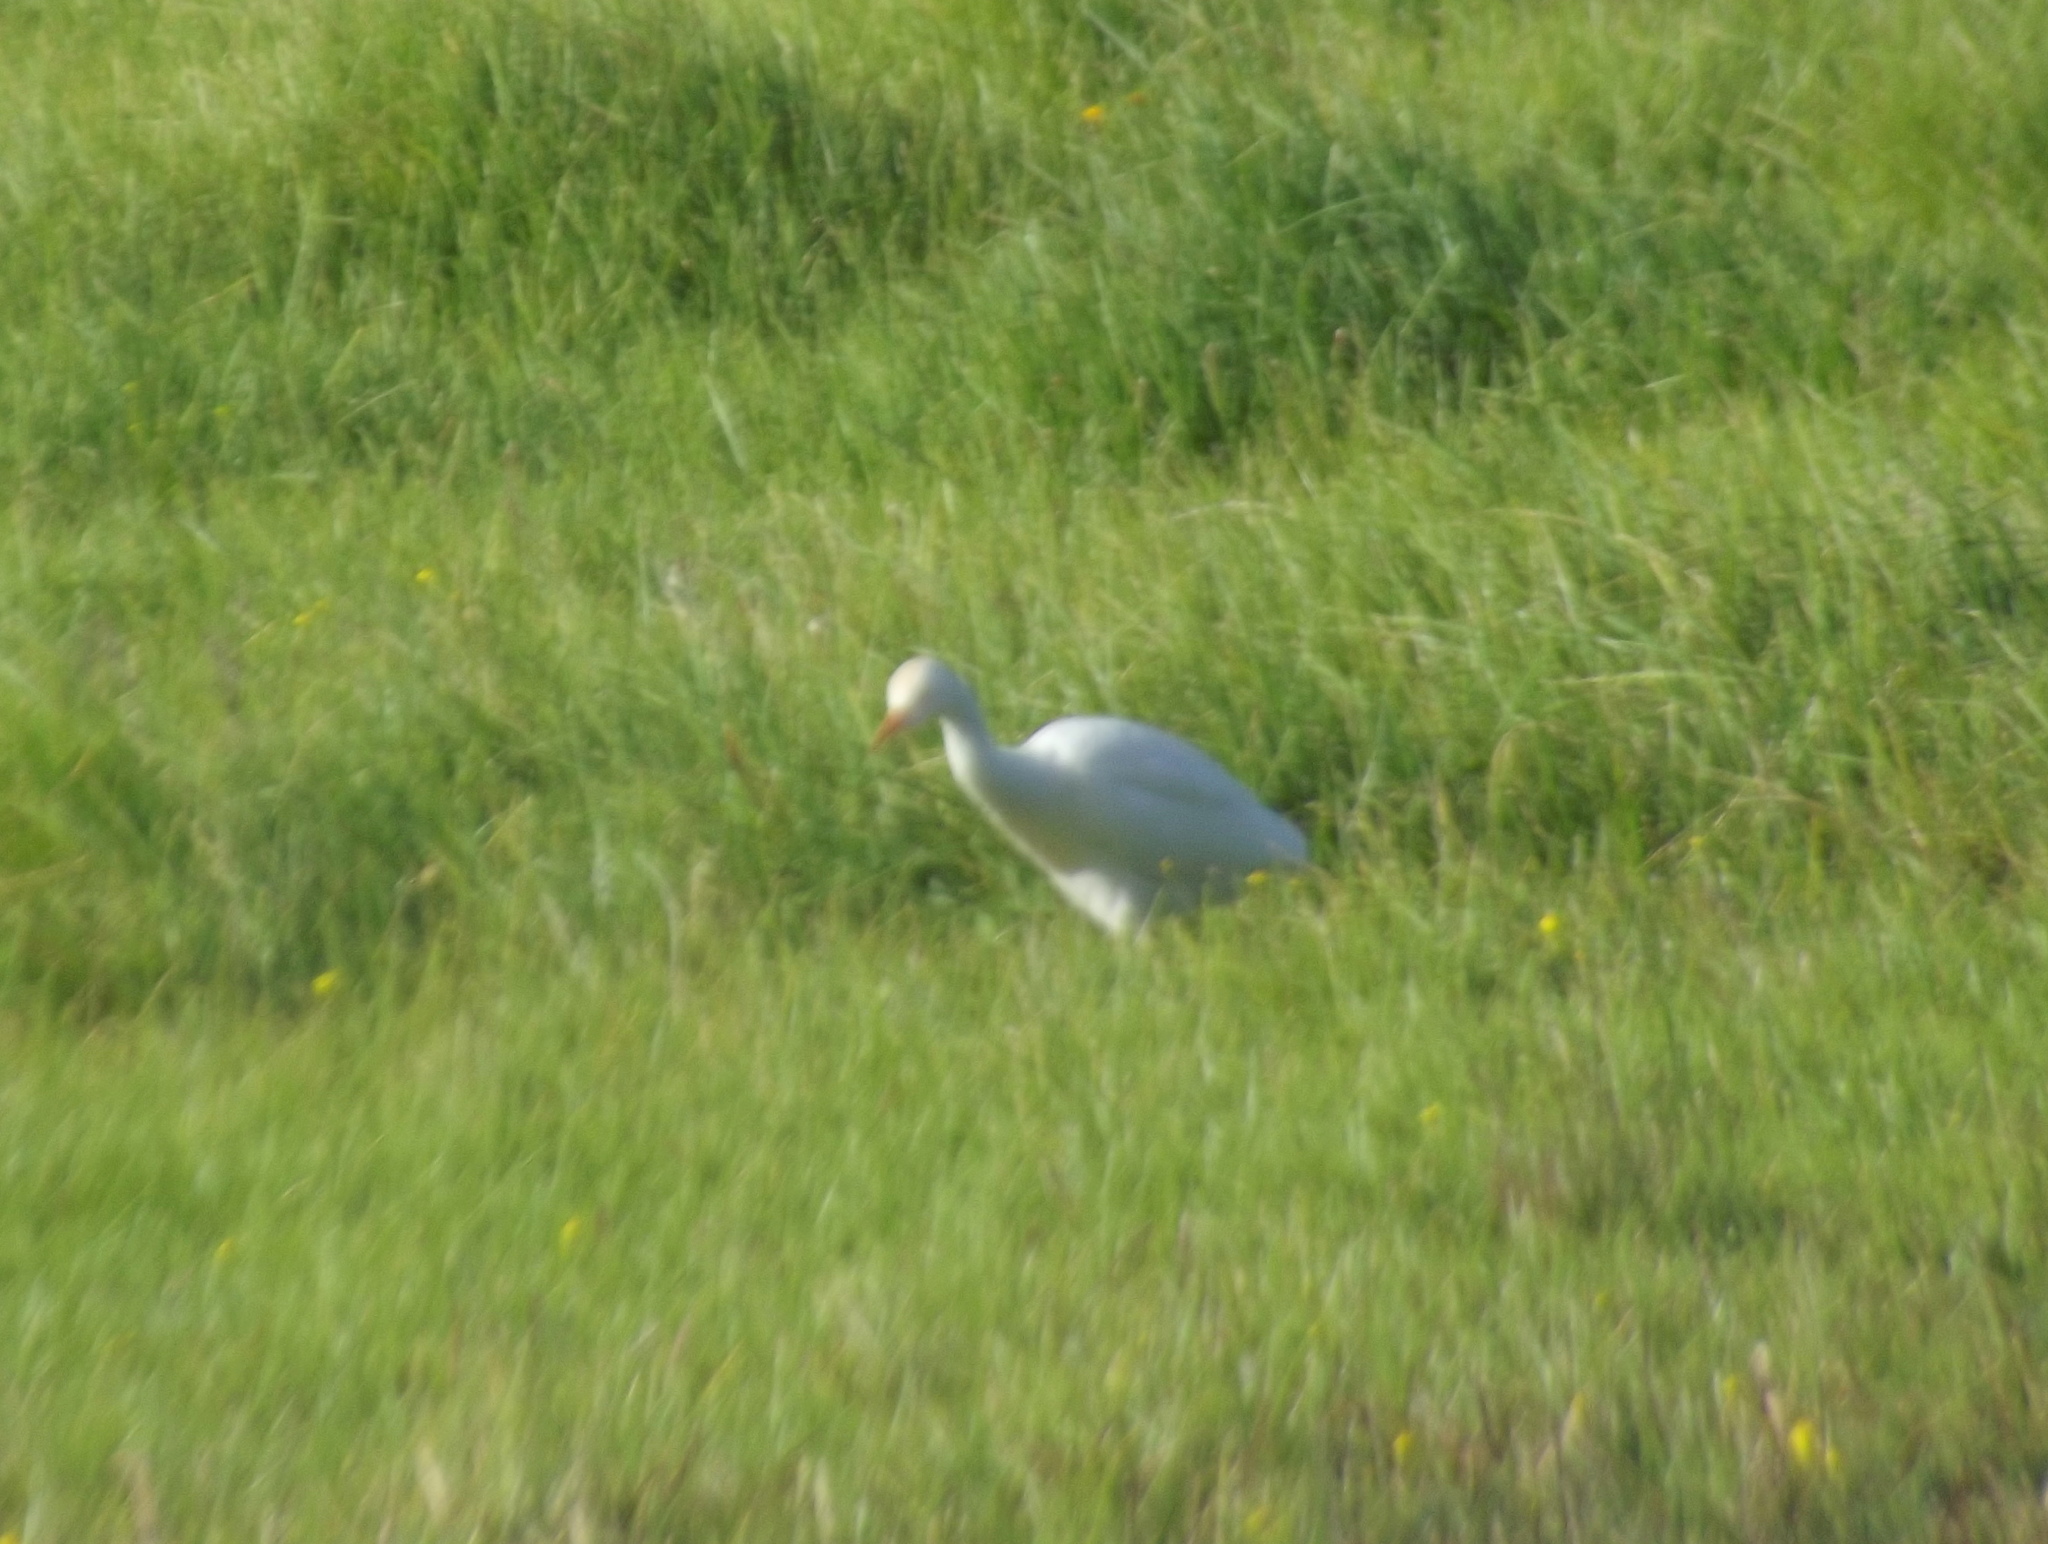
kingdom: Animalia
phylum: Chordata
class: Aves
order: Pelecaniformes
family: Ardeidae
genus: Bubulcus
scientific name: Bubulcus ibis
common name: Cattle egret
